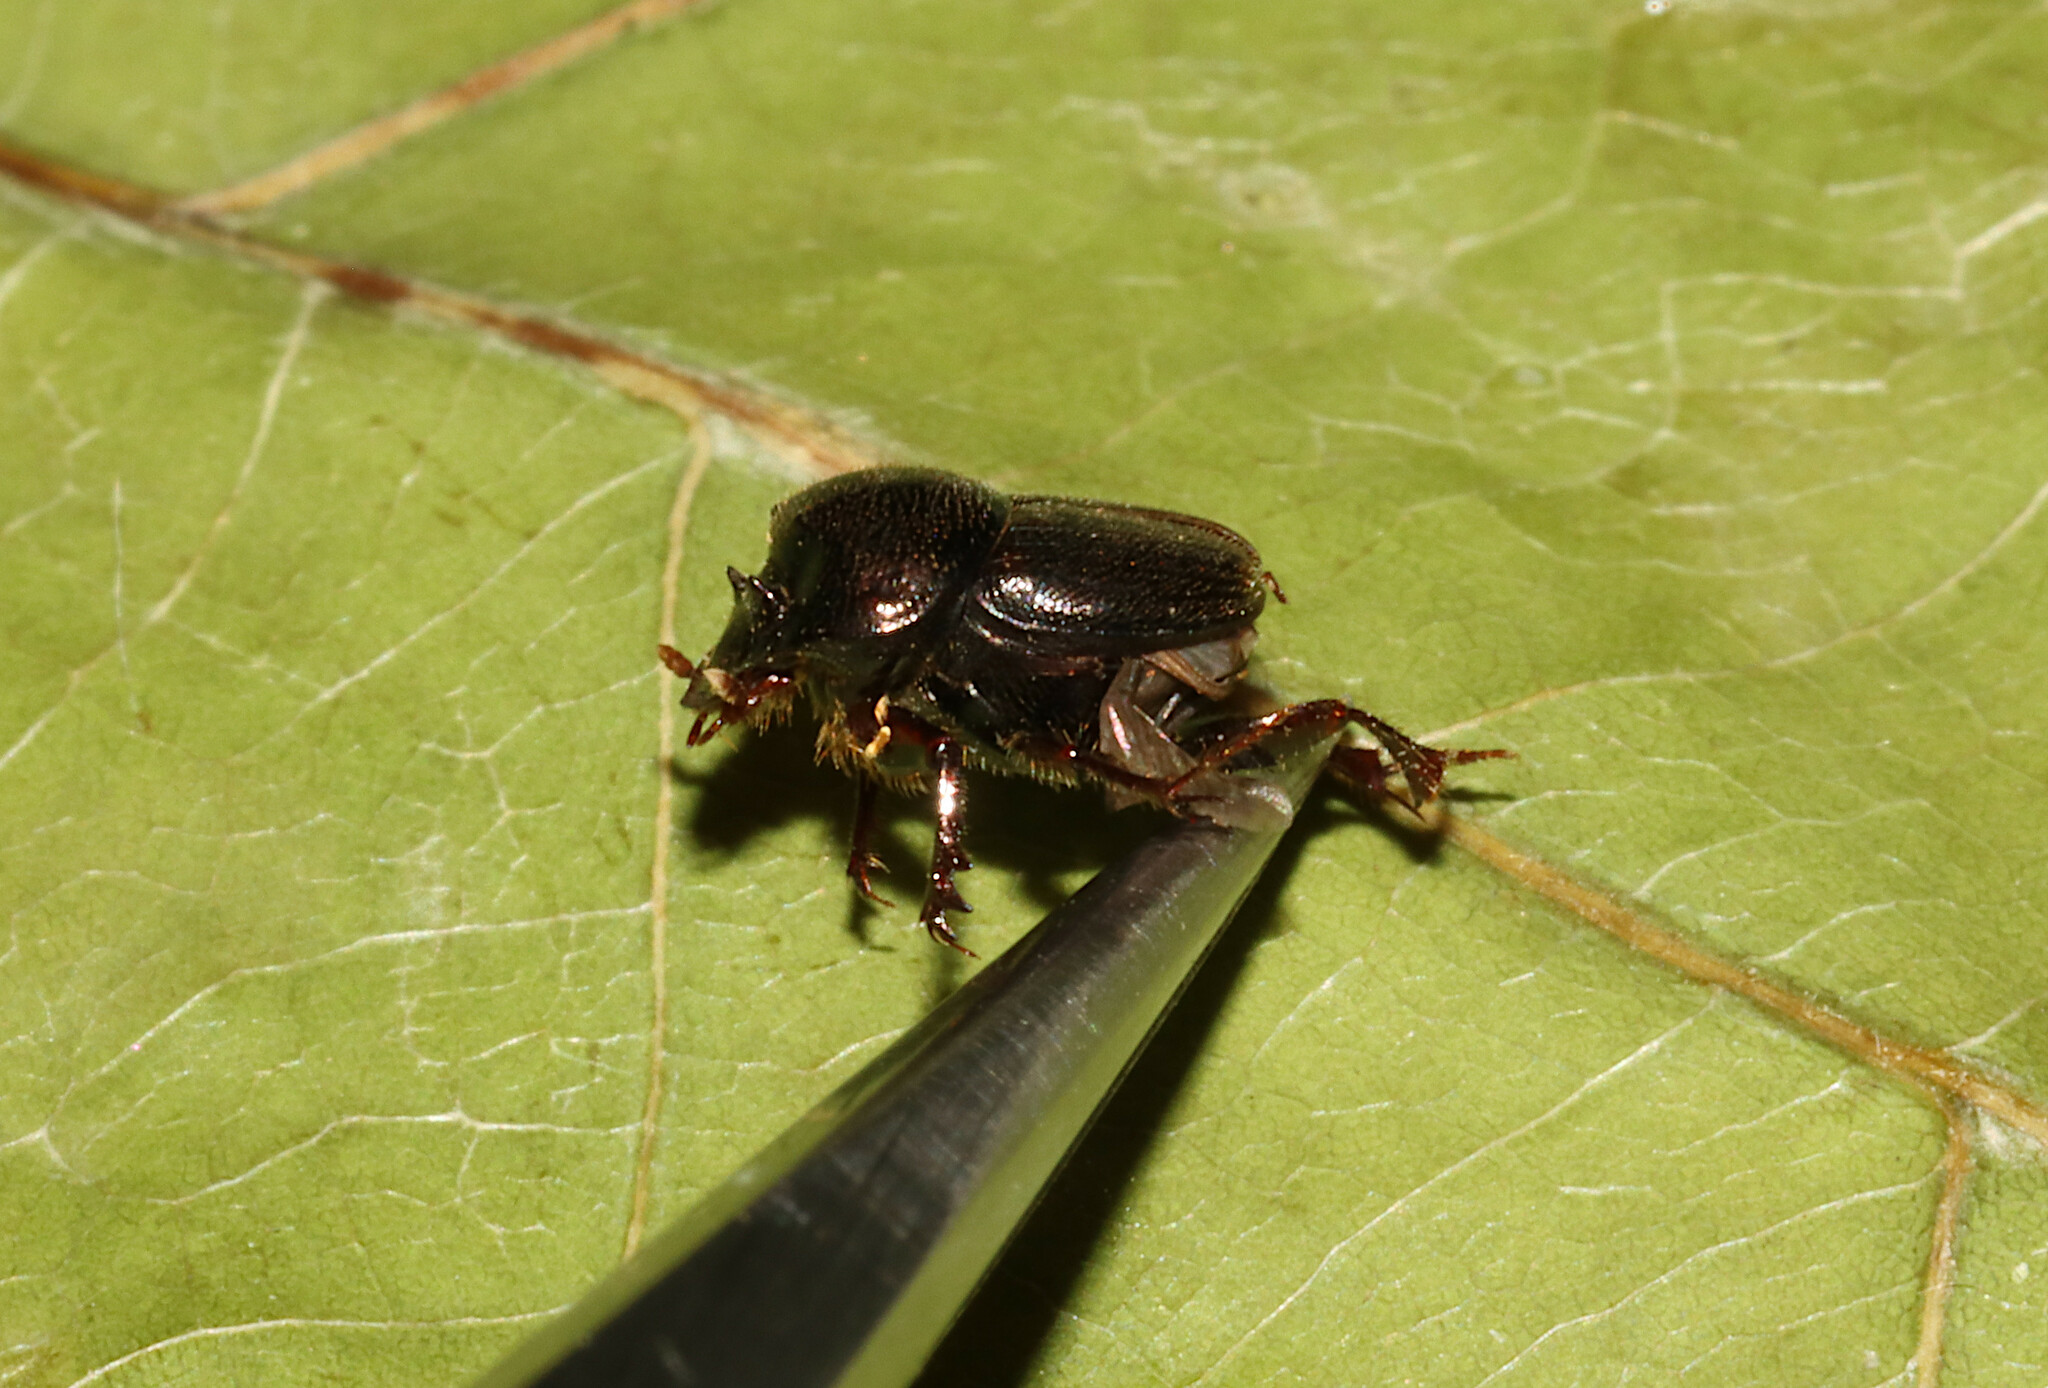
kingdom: Animalia
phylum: Arthropoda
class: Insecta
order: Coleoptera
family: Scarabaeidae
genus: Onthophagus
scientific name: Onthophagus striatulus
